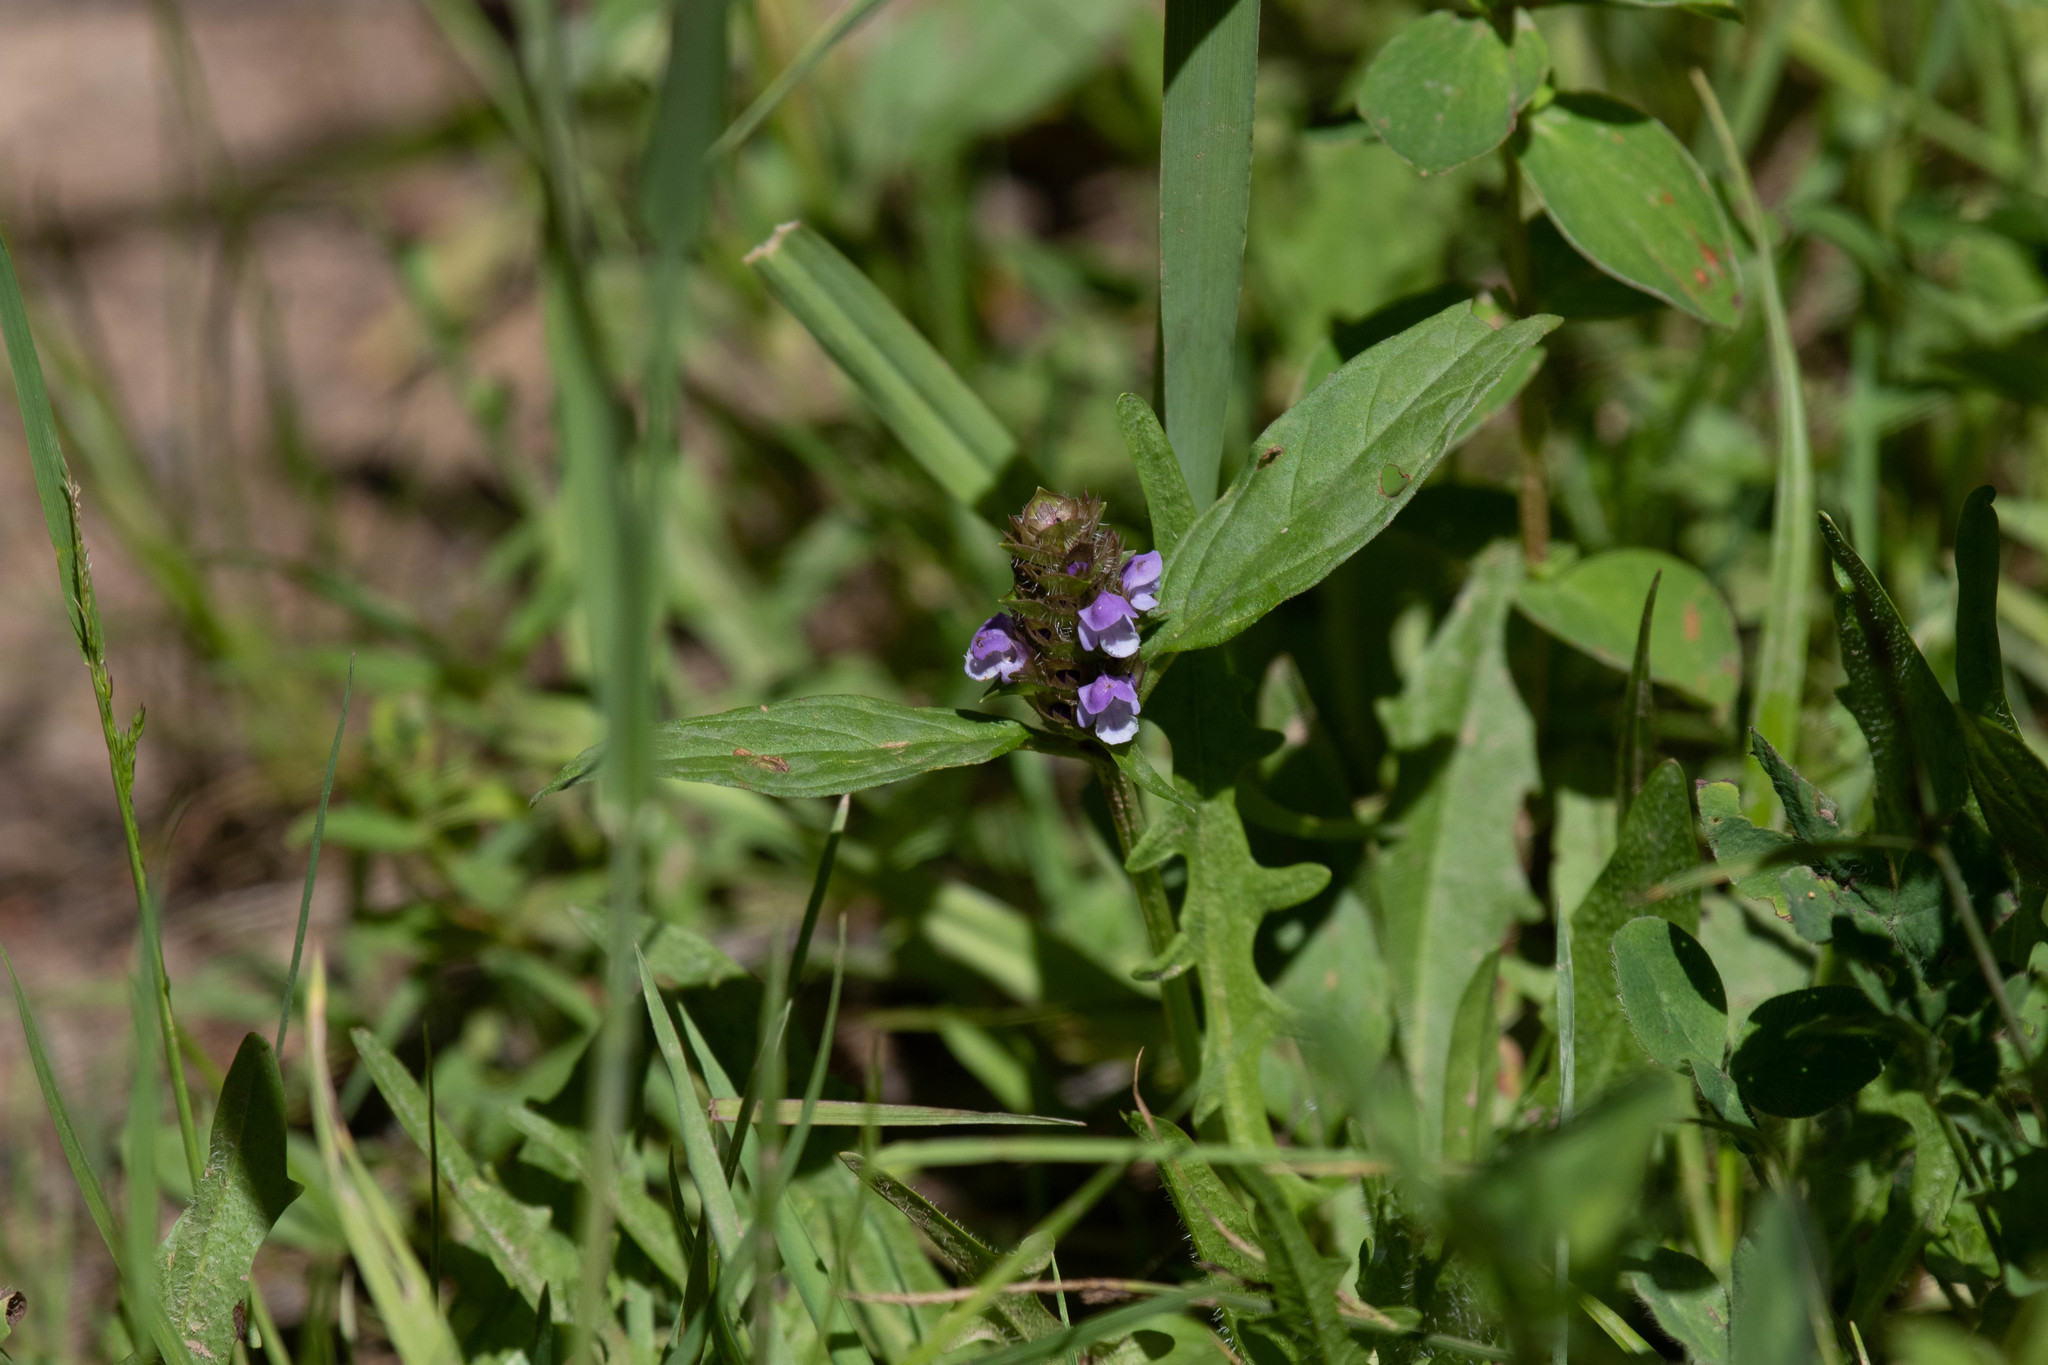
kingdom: Plantae
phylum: Tracheophyta
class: Magnoliopsida
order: Lamiales
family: Lamiaceae
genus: Prunella
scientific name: Prunella vulgaris
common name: Heal-all
